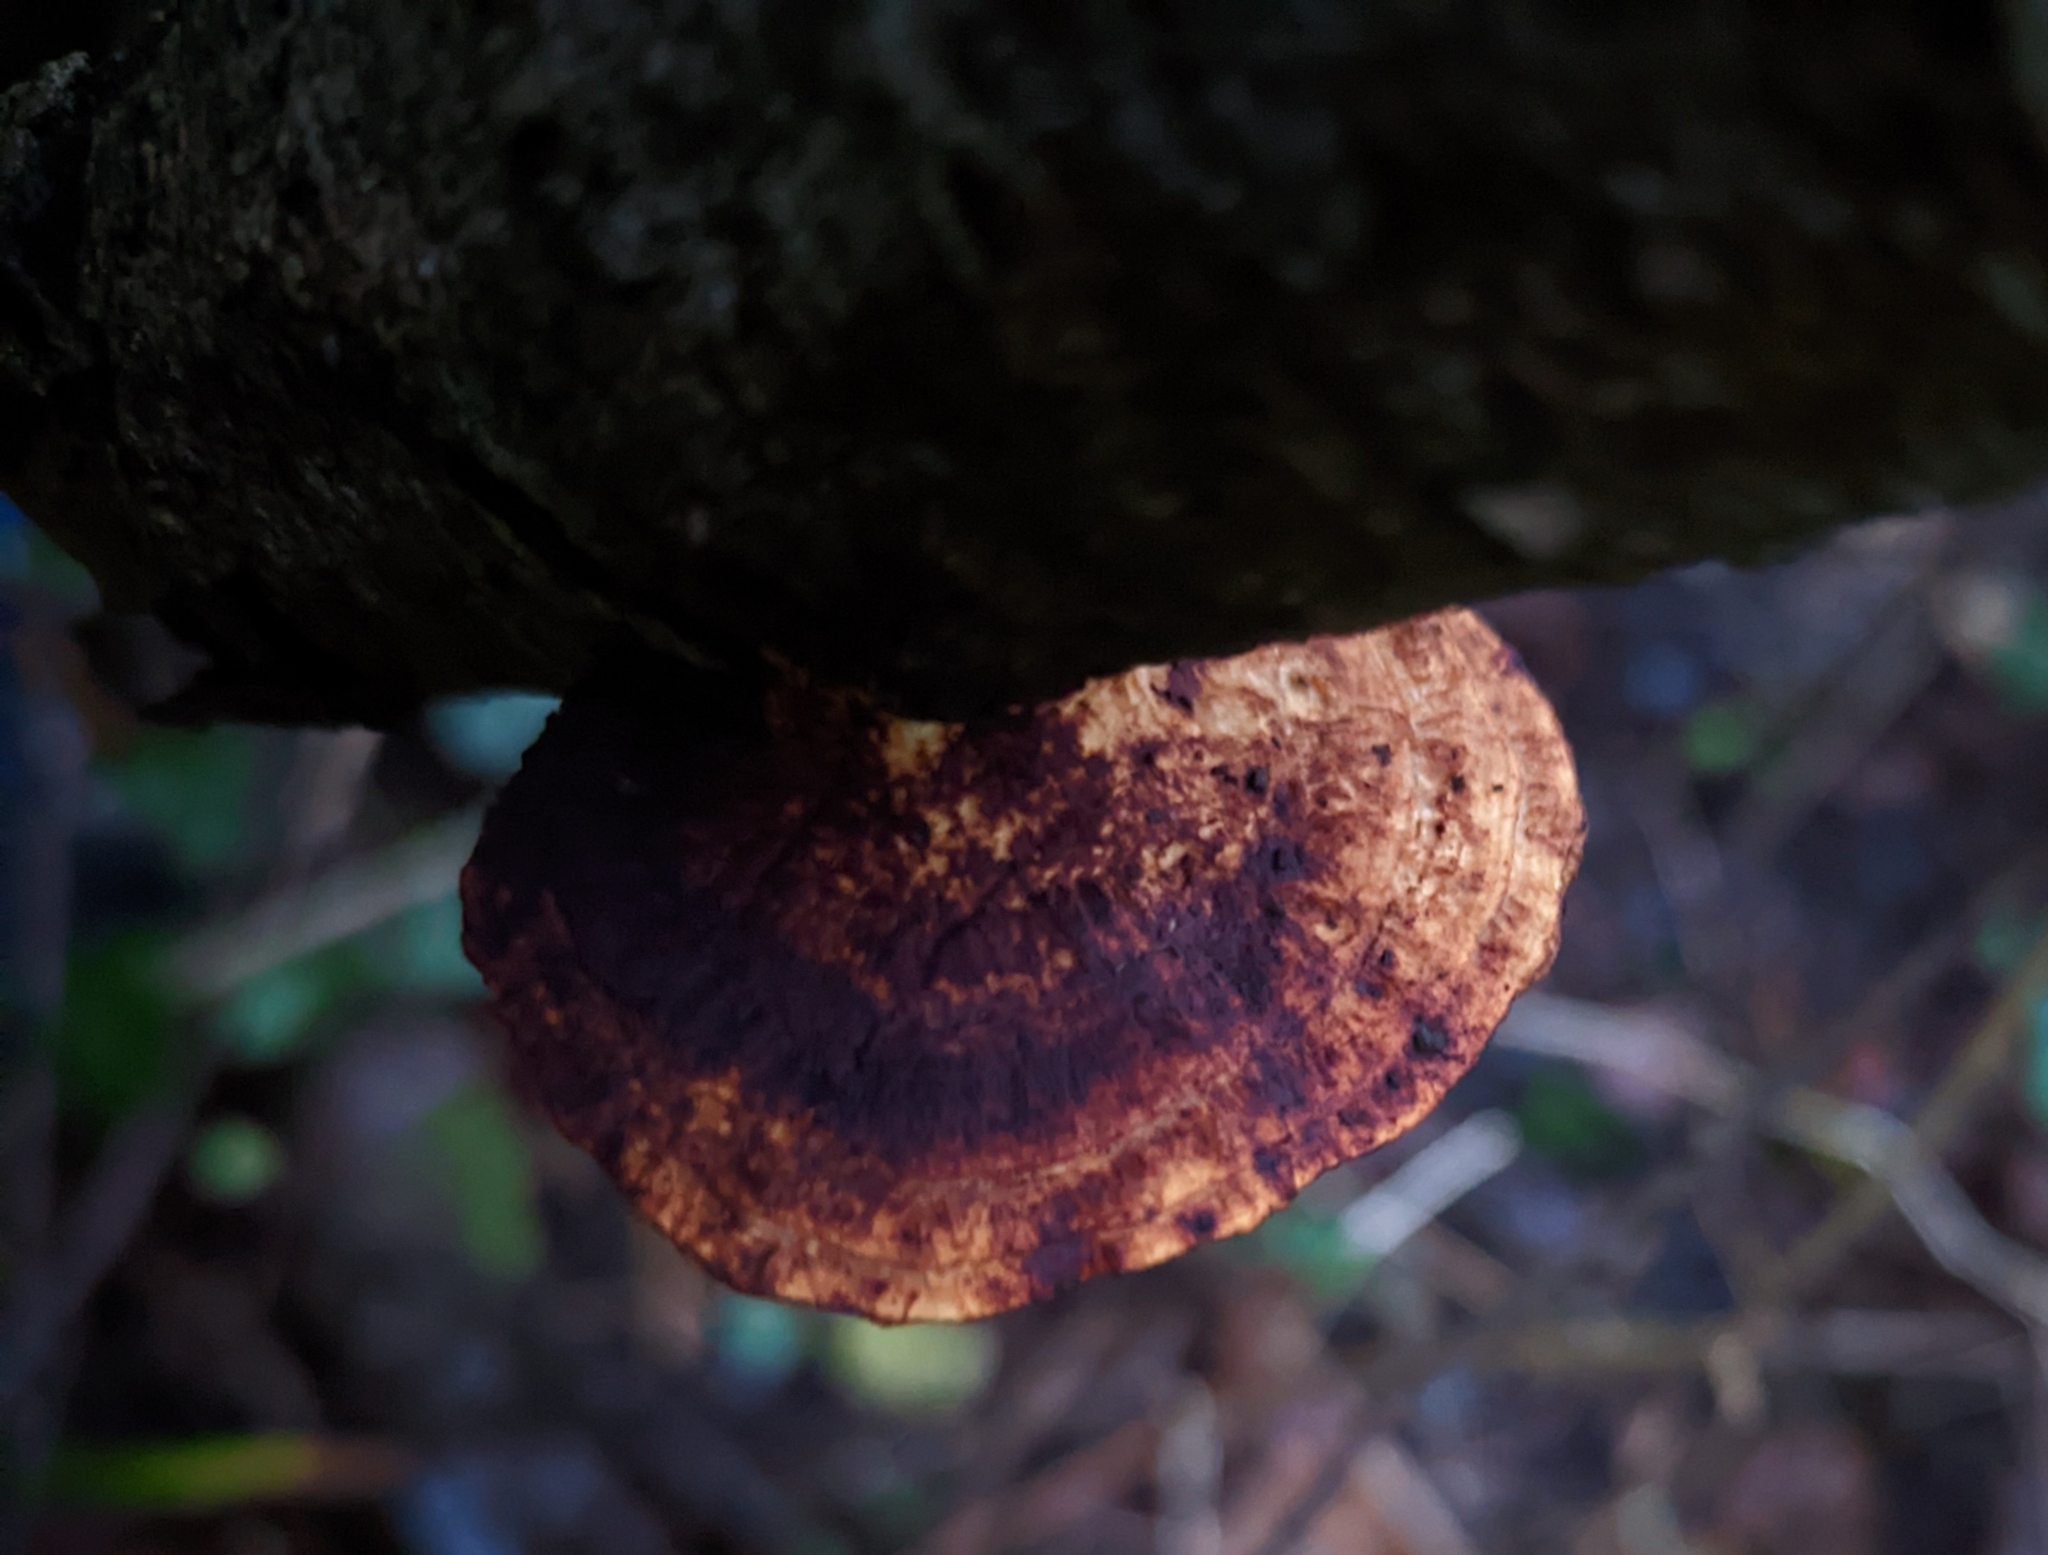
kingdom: Fungi
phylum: Basidiomycota
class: Agaricomycetes
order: Polyporales
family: Polyporaceae
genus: Daedaleopsis
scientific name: Daedaleopsis confragosa
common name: Blushing bracket
